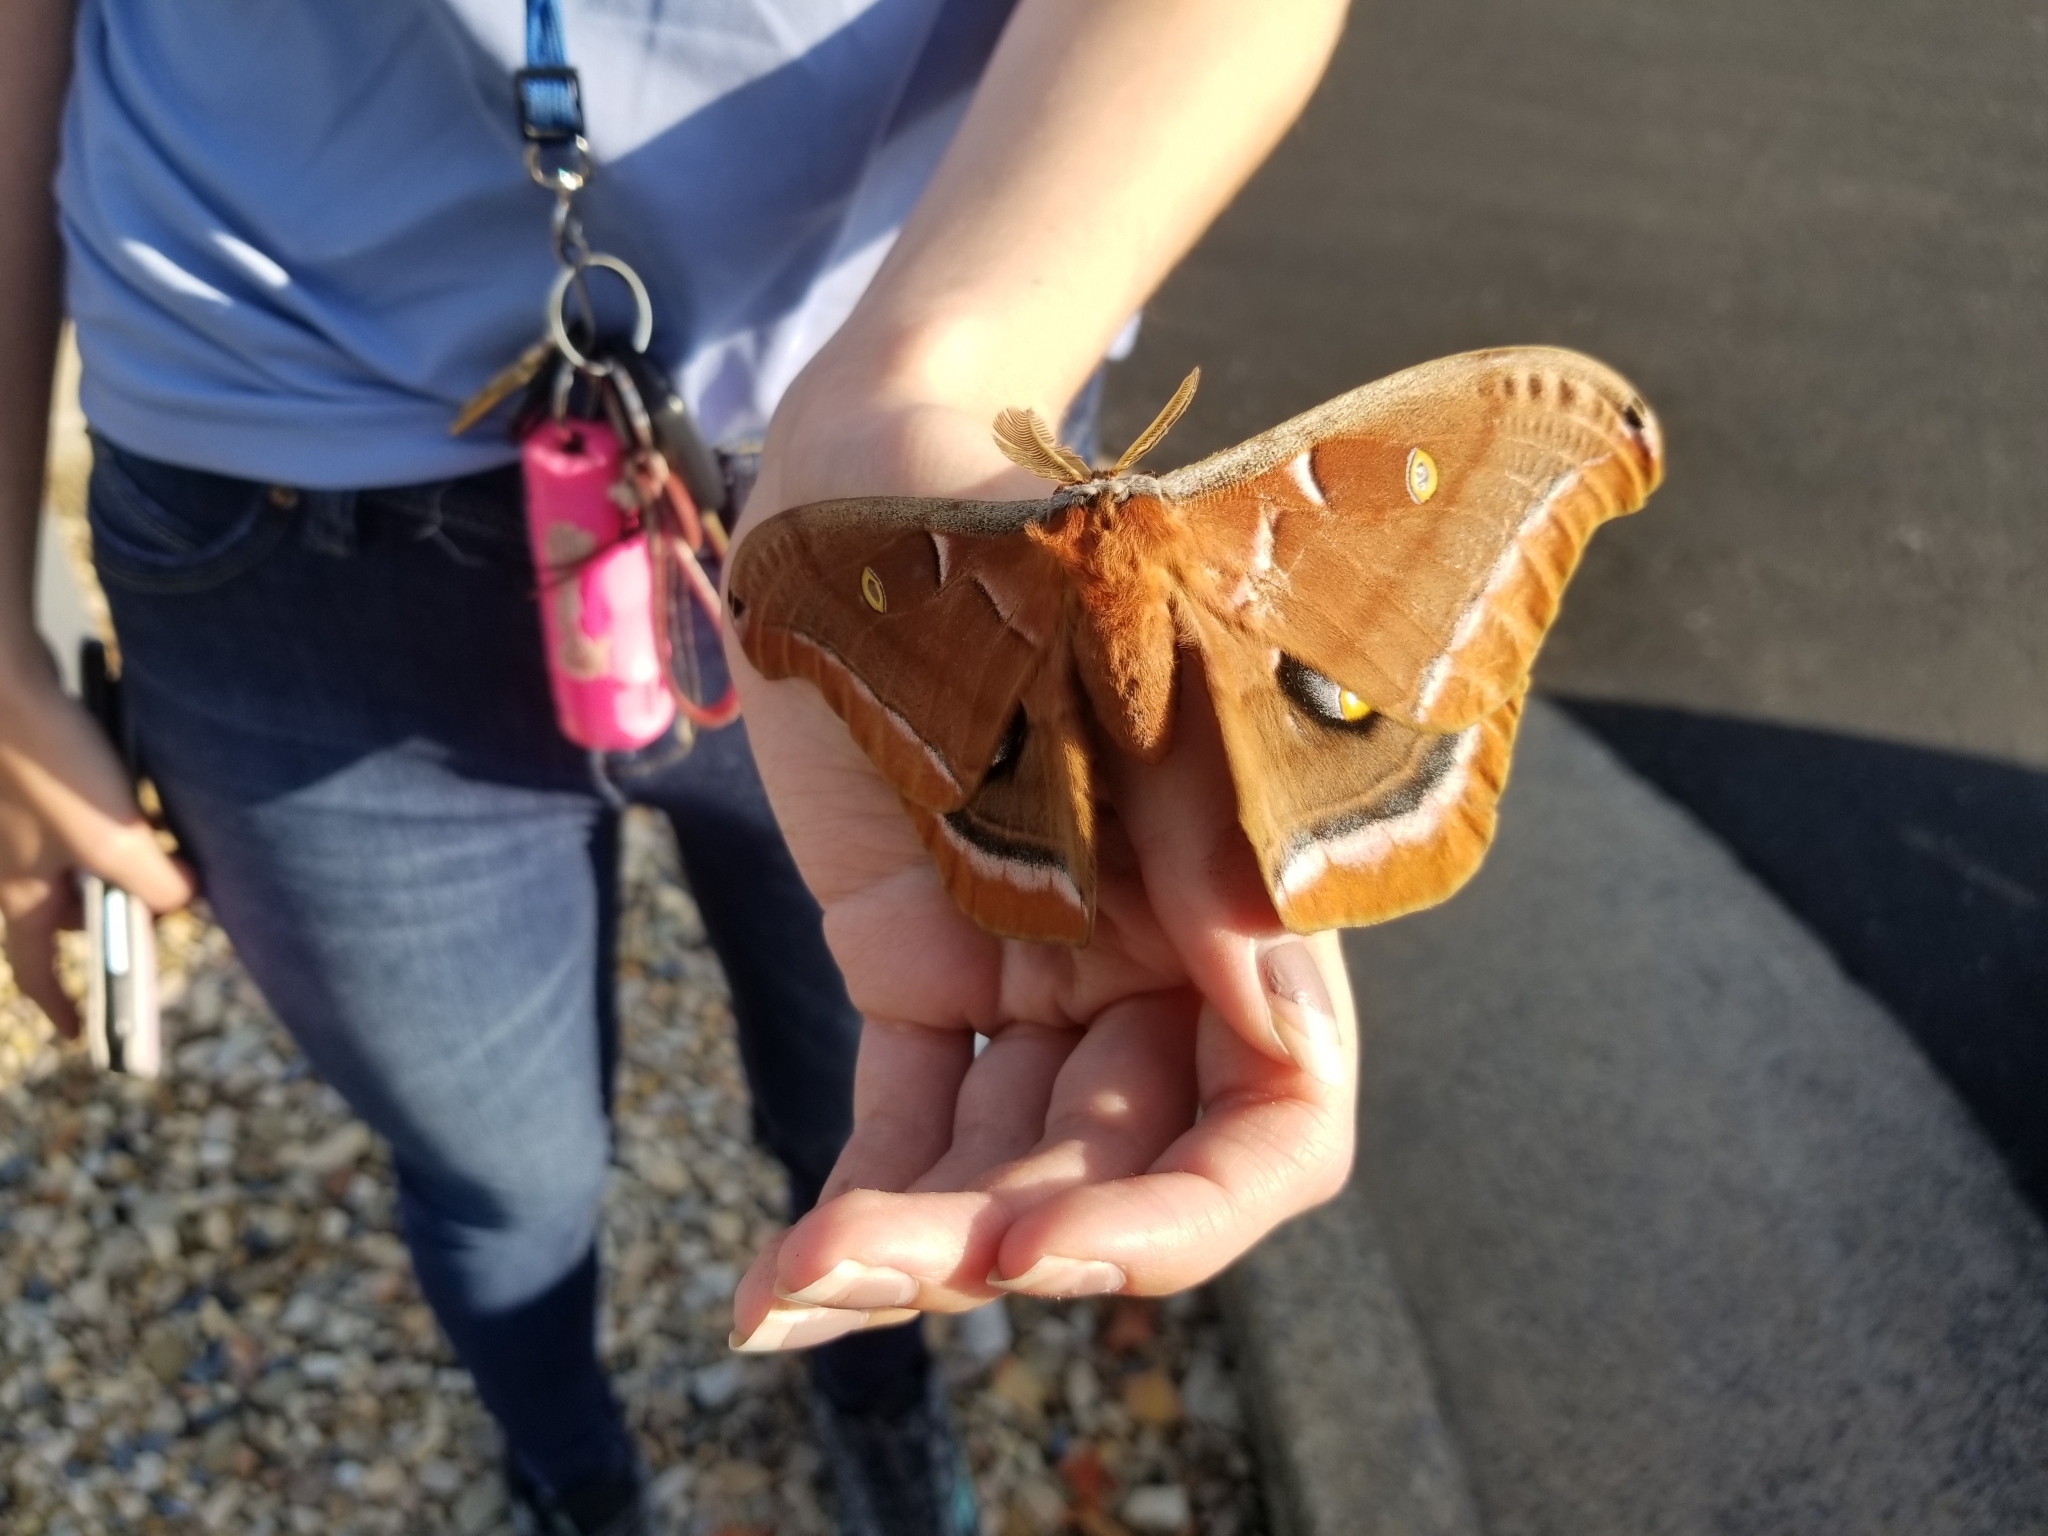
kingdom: Animalia
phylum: Arthropoda
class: Insecta
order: Lepidoptera
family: Saturniidae
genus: Antheraea
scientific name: Antheraea polyphemus
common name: Polyphemus moth
